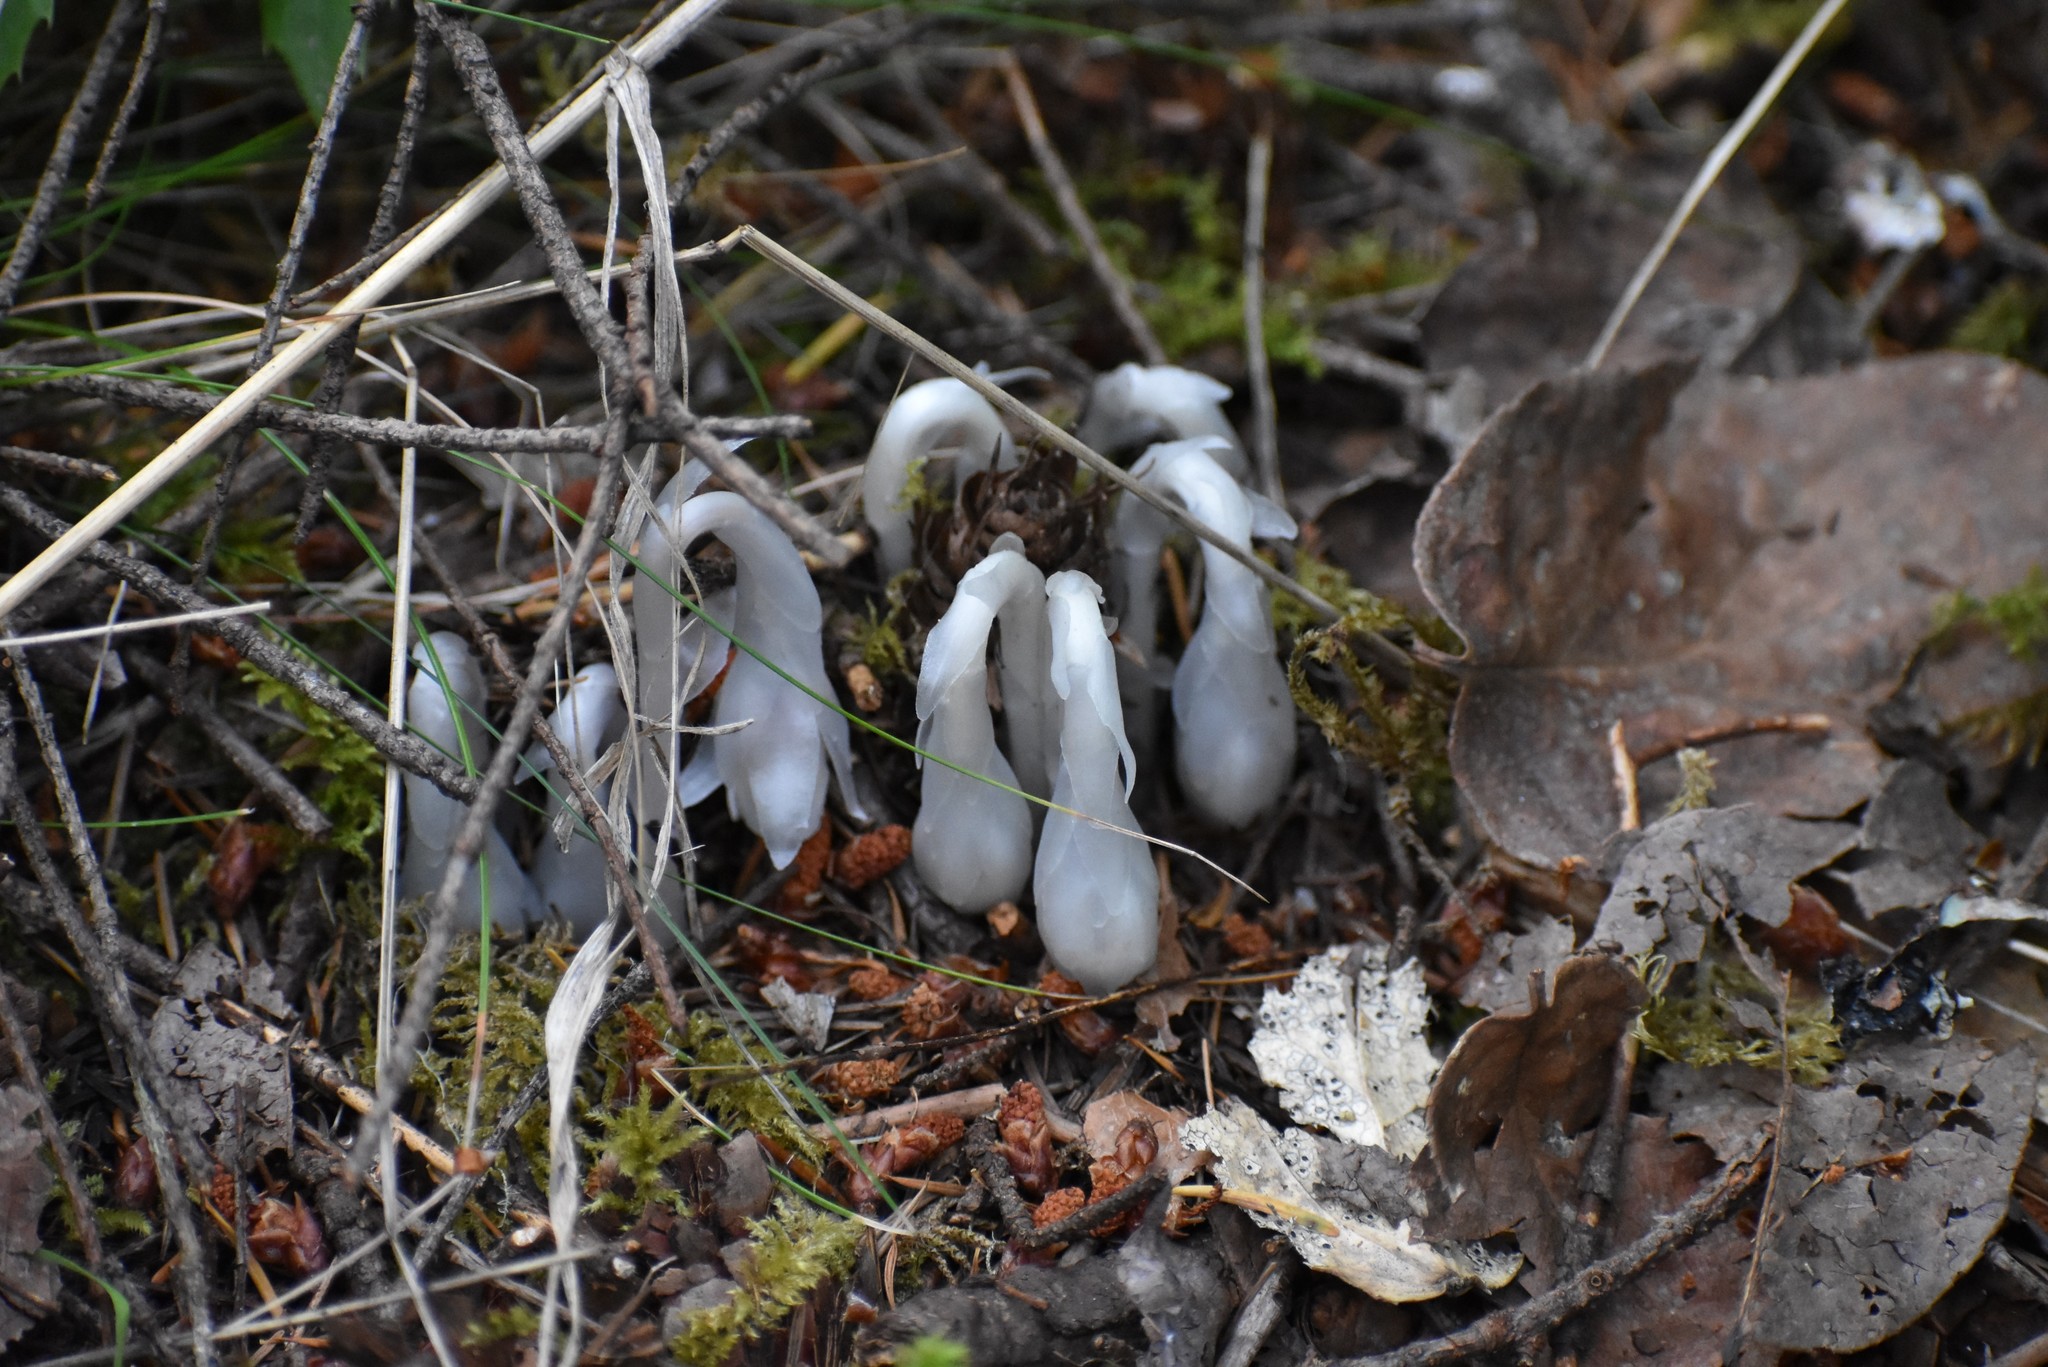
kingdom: Plantae
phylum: Tracheophyta
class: Magnoliopsida
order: Ericales
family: Ericaceae
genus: Monotropa
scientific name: Monotropa uniflora
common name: Convulsion root
